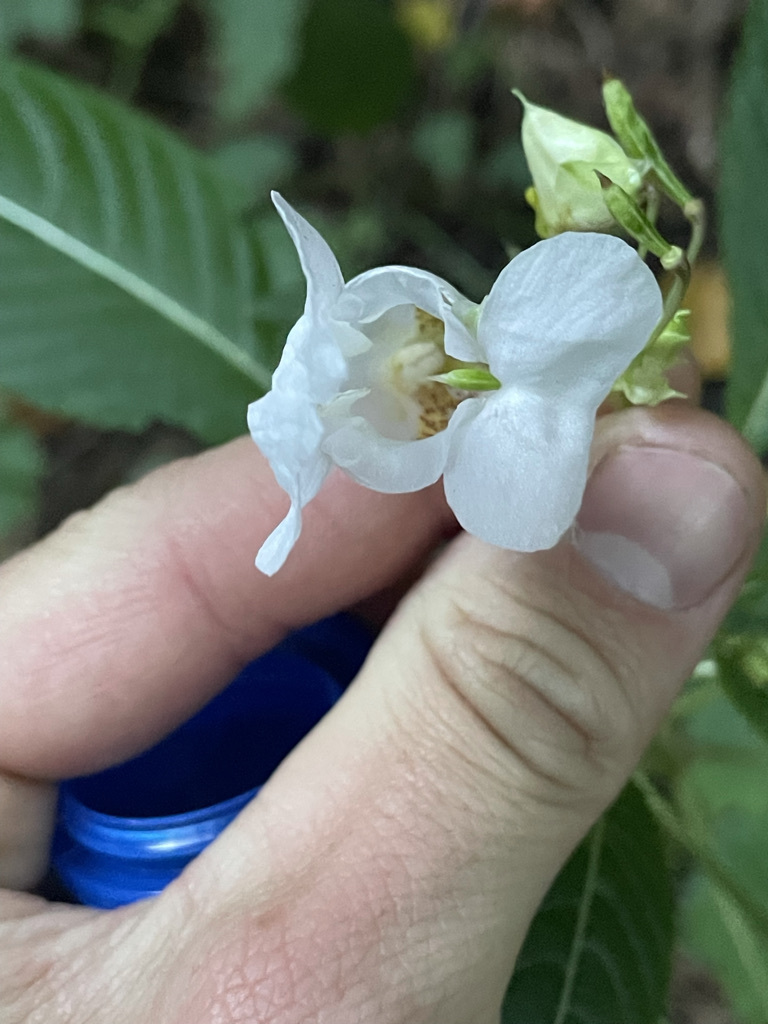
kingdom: Plantae
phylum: Tracheophyta
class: Magnoliopsida
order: Ericales
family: Balsaminaceae
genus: Impatiens
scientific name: Impatiens glandulifera
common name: Himalayan balsam
